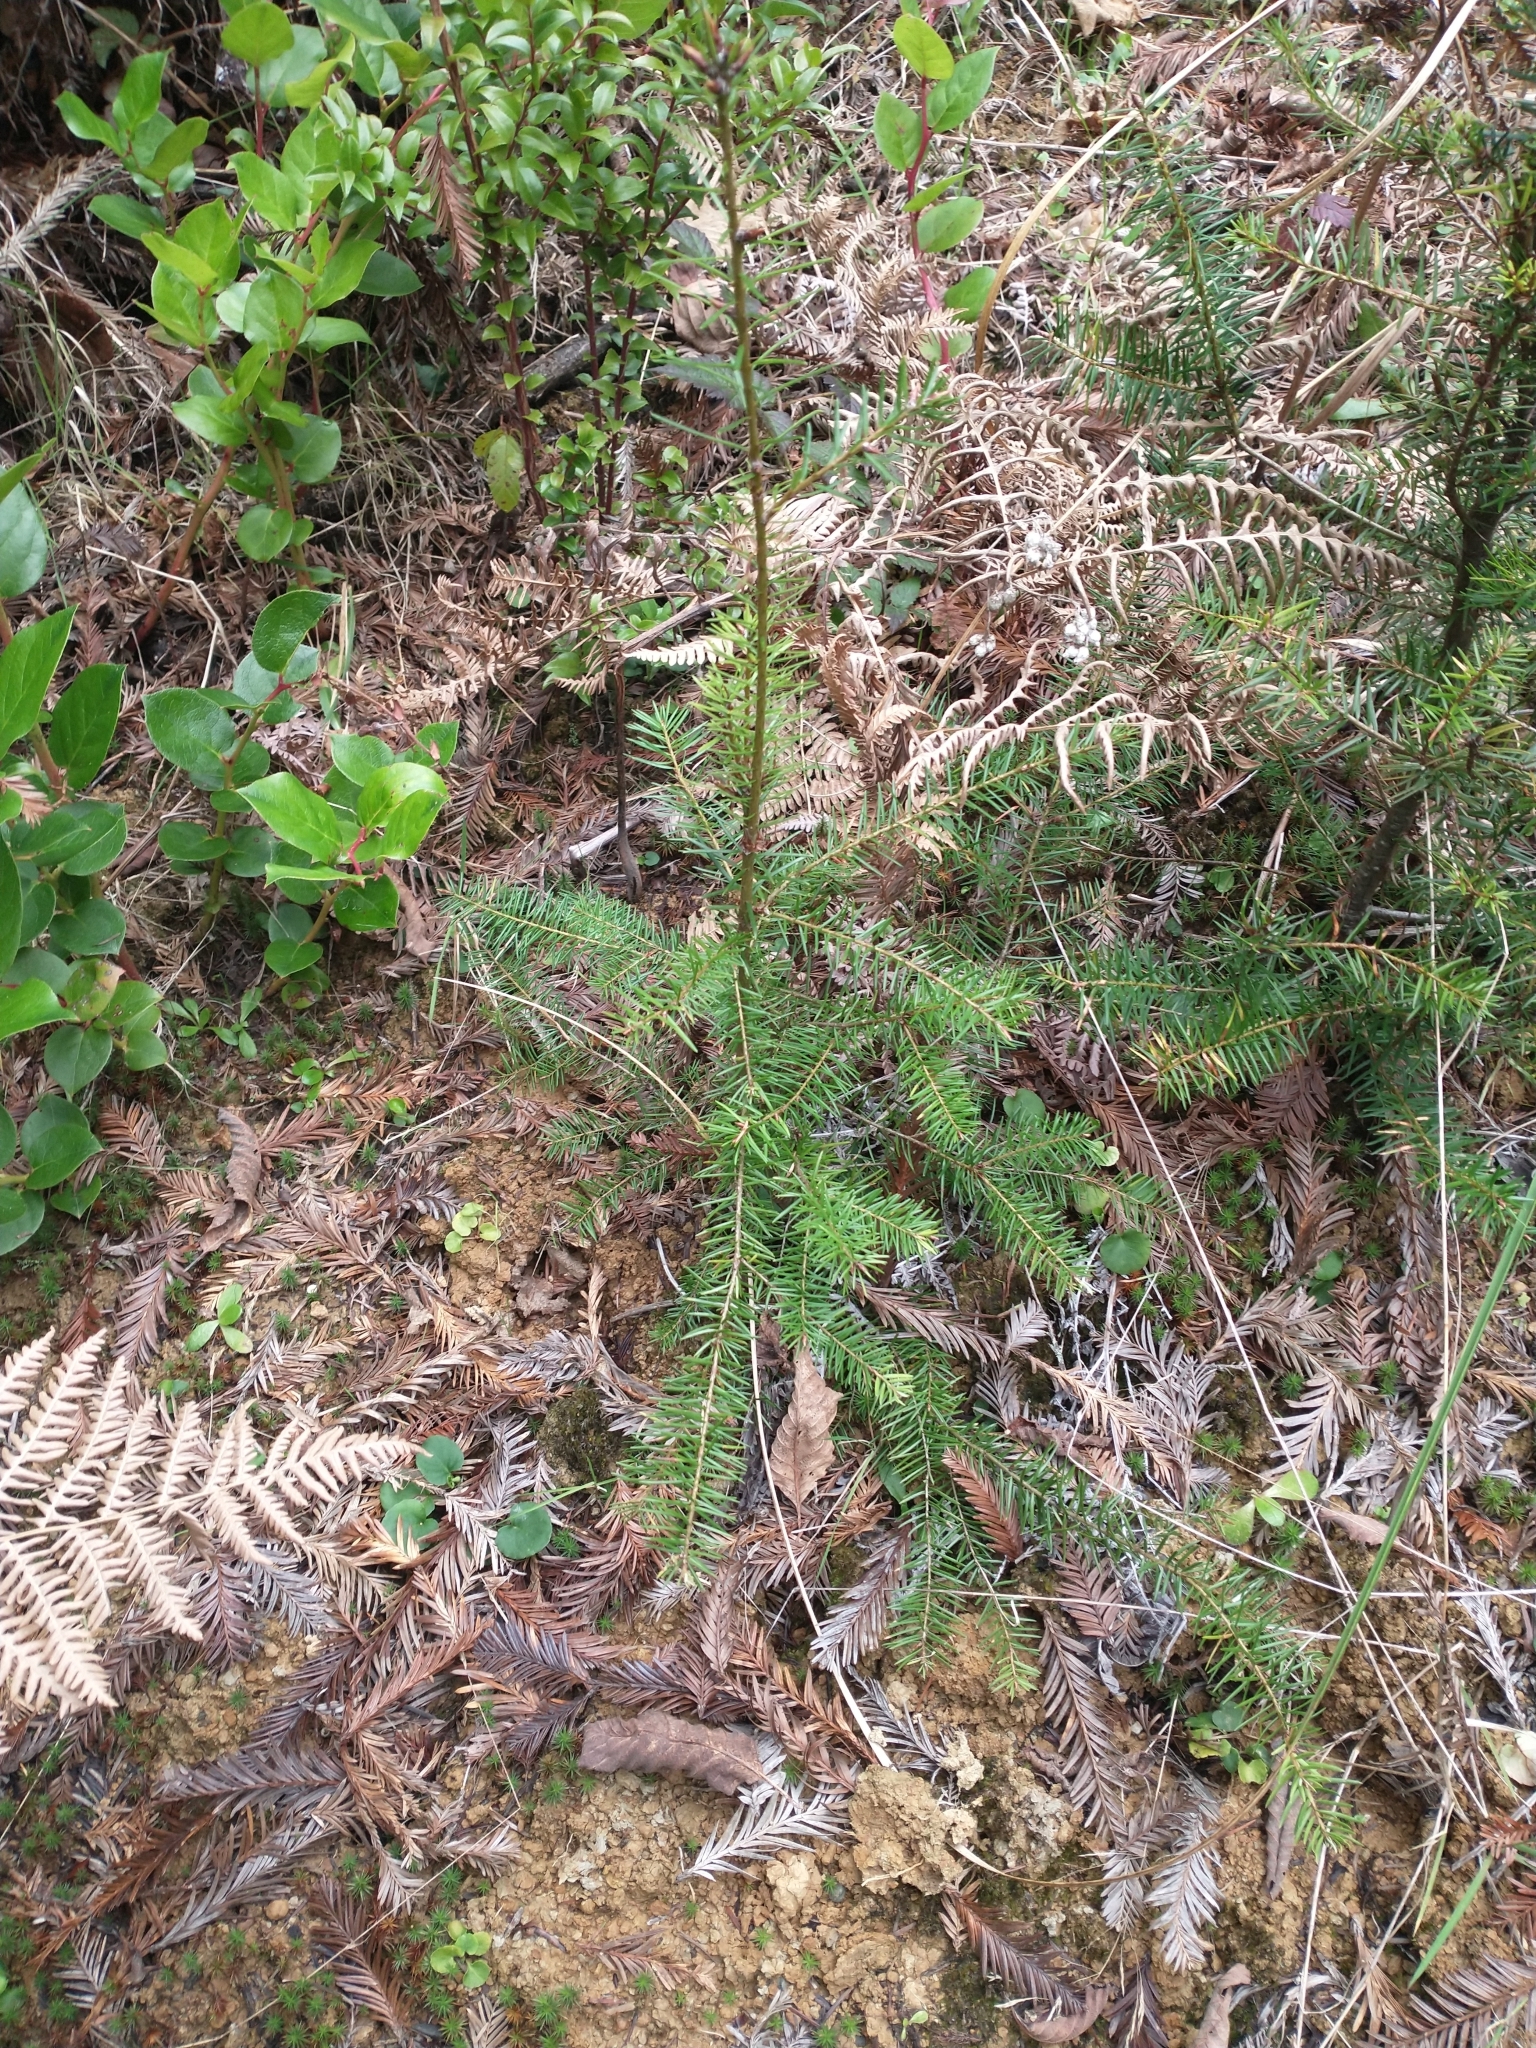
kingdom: Plantae
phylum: Tracheophyta
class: Pinopsida
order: Pinales
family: Pinaceae
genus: Pseudotsuga
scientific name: Pseudotsuga menziesii
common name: Douglas fir
